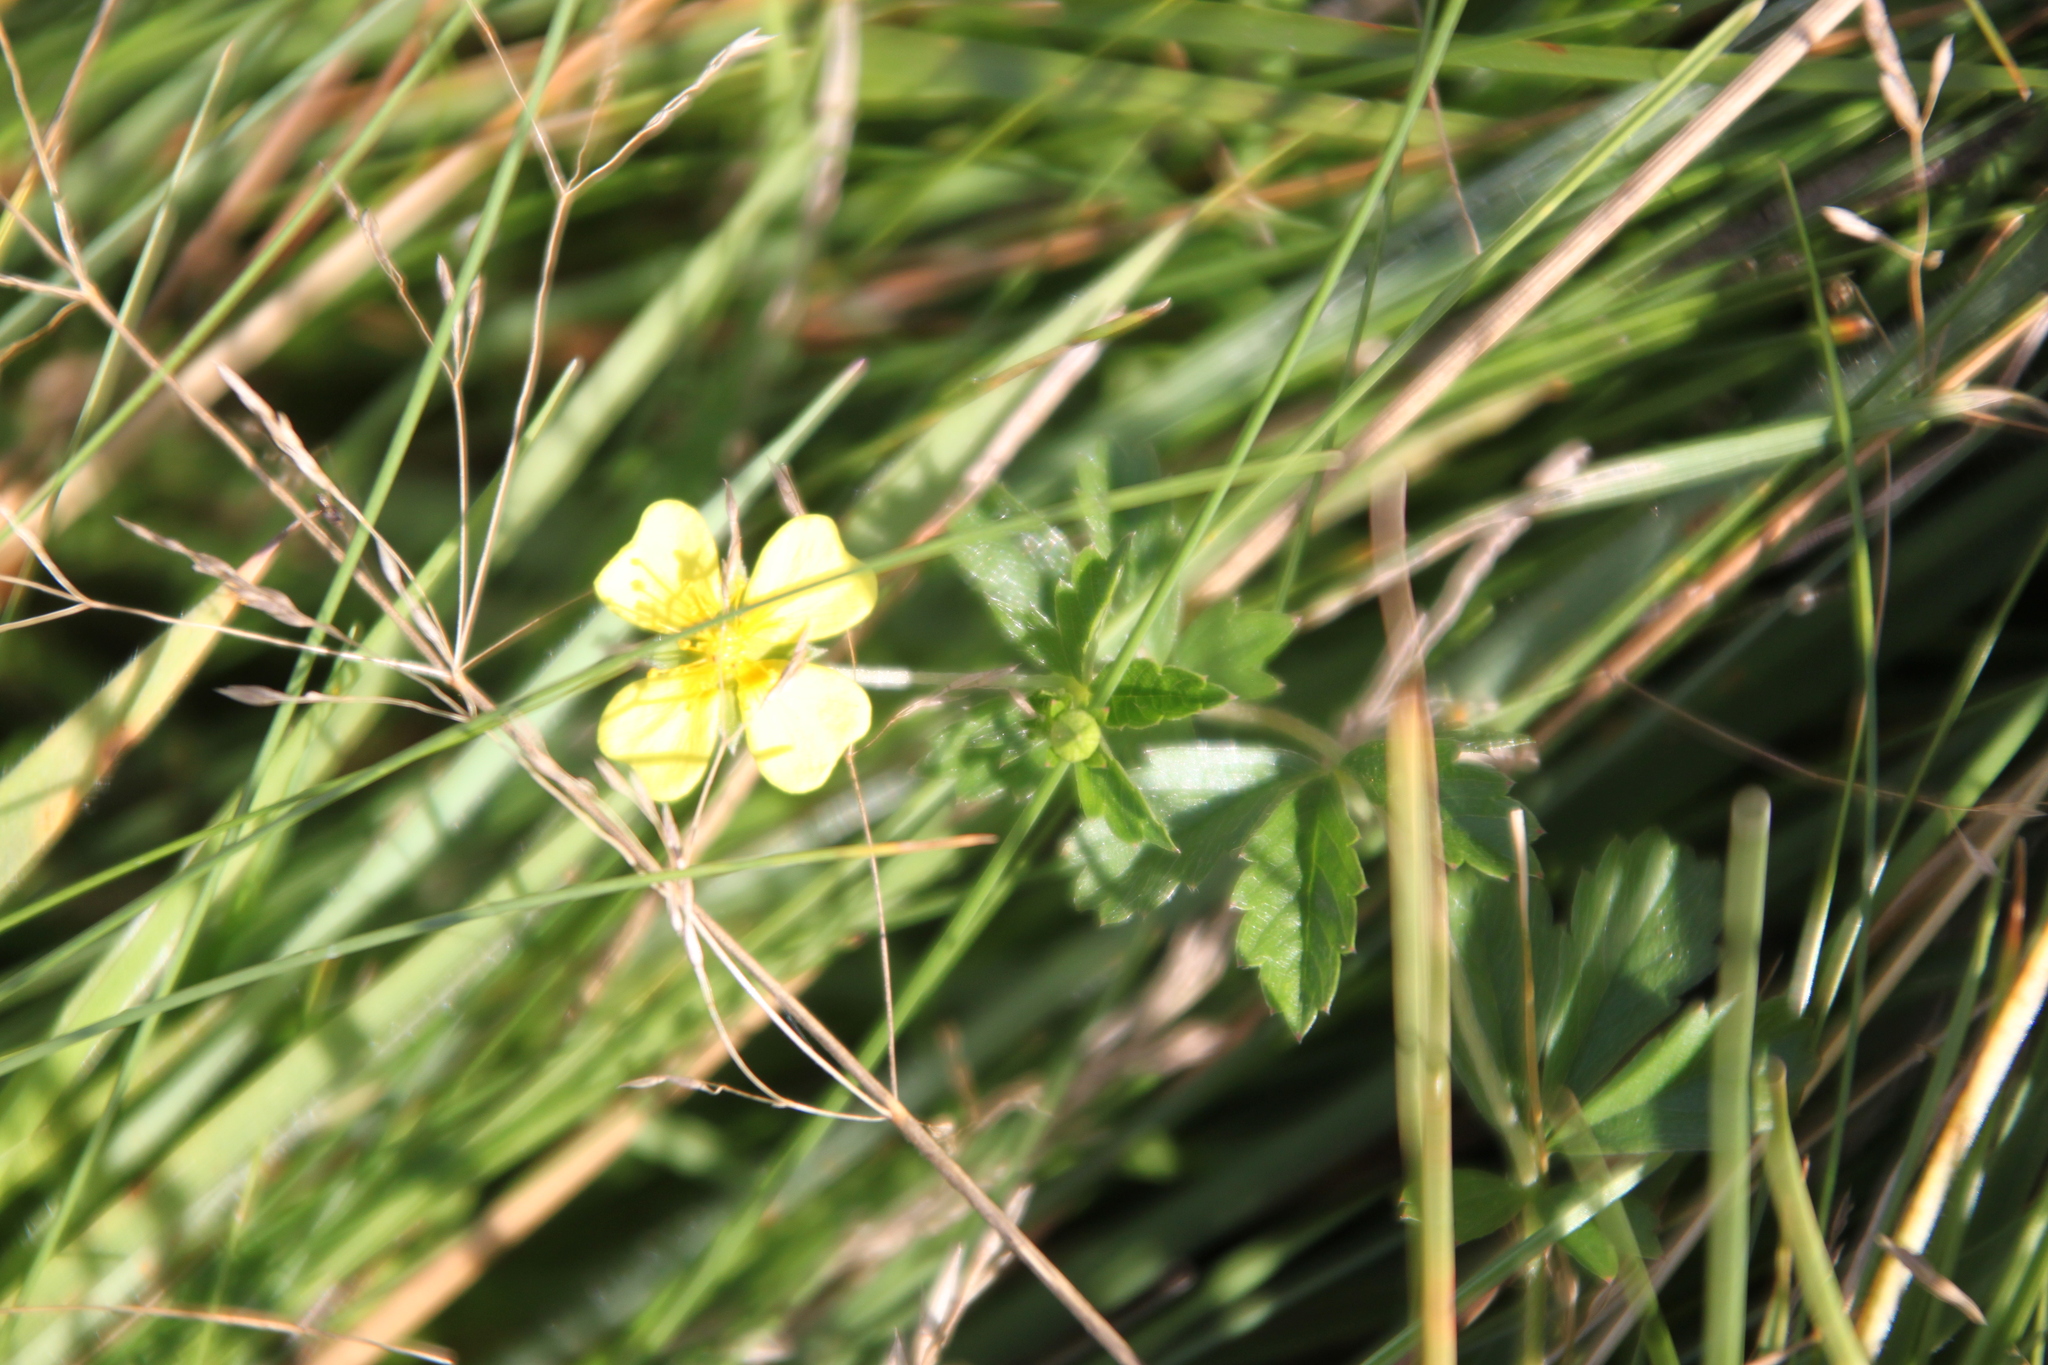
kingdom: Plantae
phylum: Tracheophyta
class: Magnoliopsida
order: Rosales
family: Rosaceae
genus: Potentilla
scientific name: Potentilla erecta
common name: Tormentil
